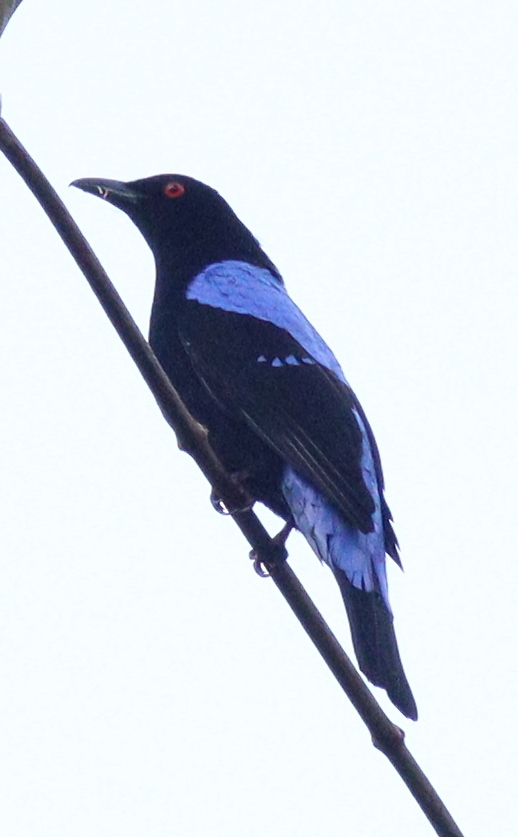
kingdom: Animalia
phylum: Chordata
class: Aves
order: Passeriformes
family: Irenidae
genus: Irena
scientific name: Irena puella
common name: Asian fairy-bluebird
